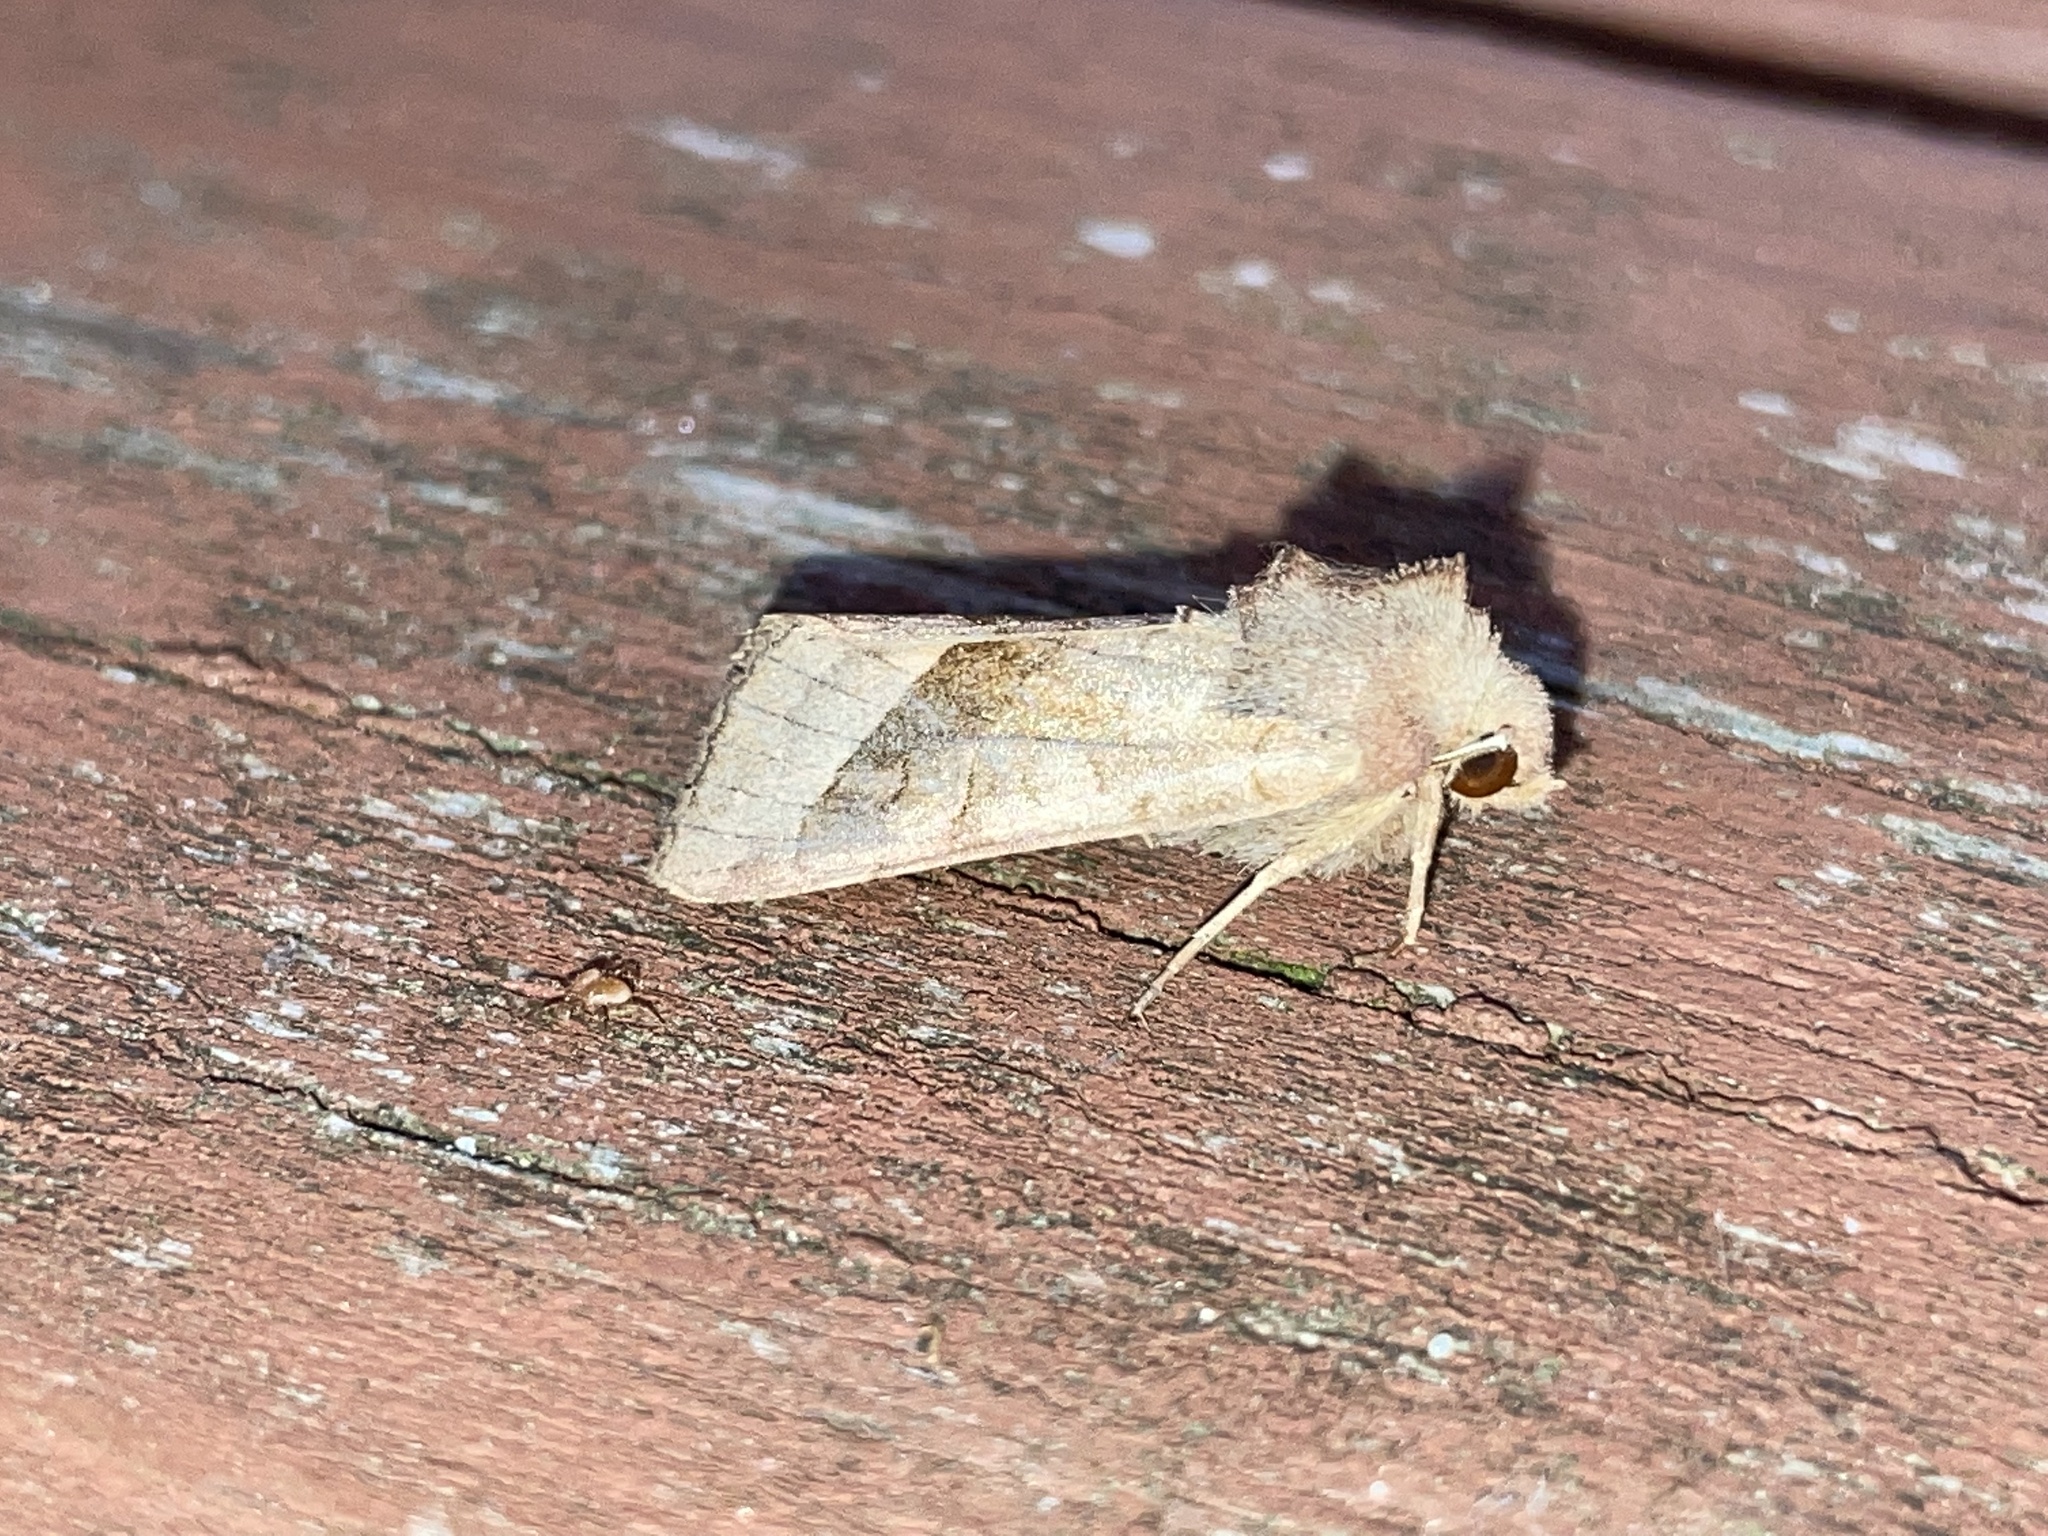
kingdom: Animalia
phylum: Arthropoda
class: Insecta
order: Lepidoptera
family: Noctuidae
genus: Hydraecia
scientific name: Hydraecia micacea
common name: Rosy rustic
